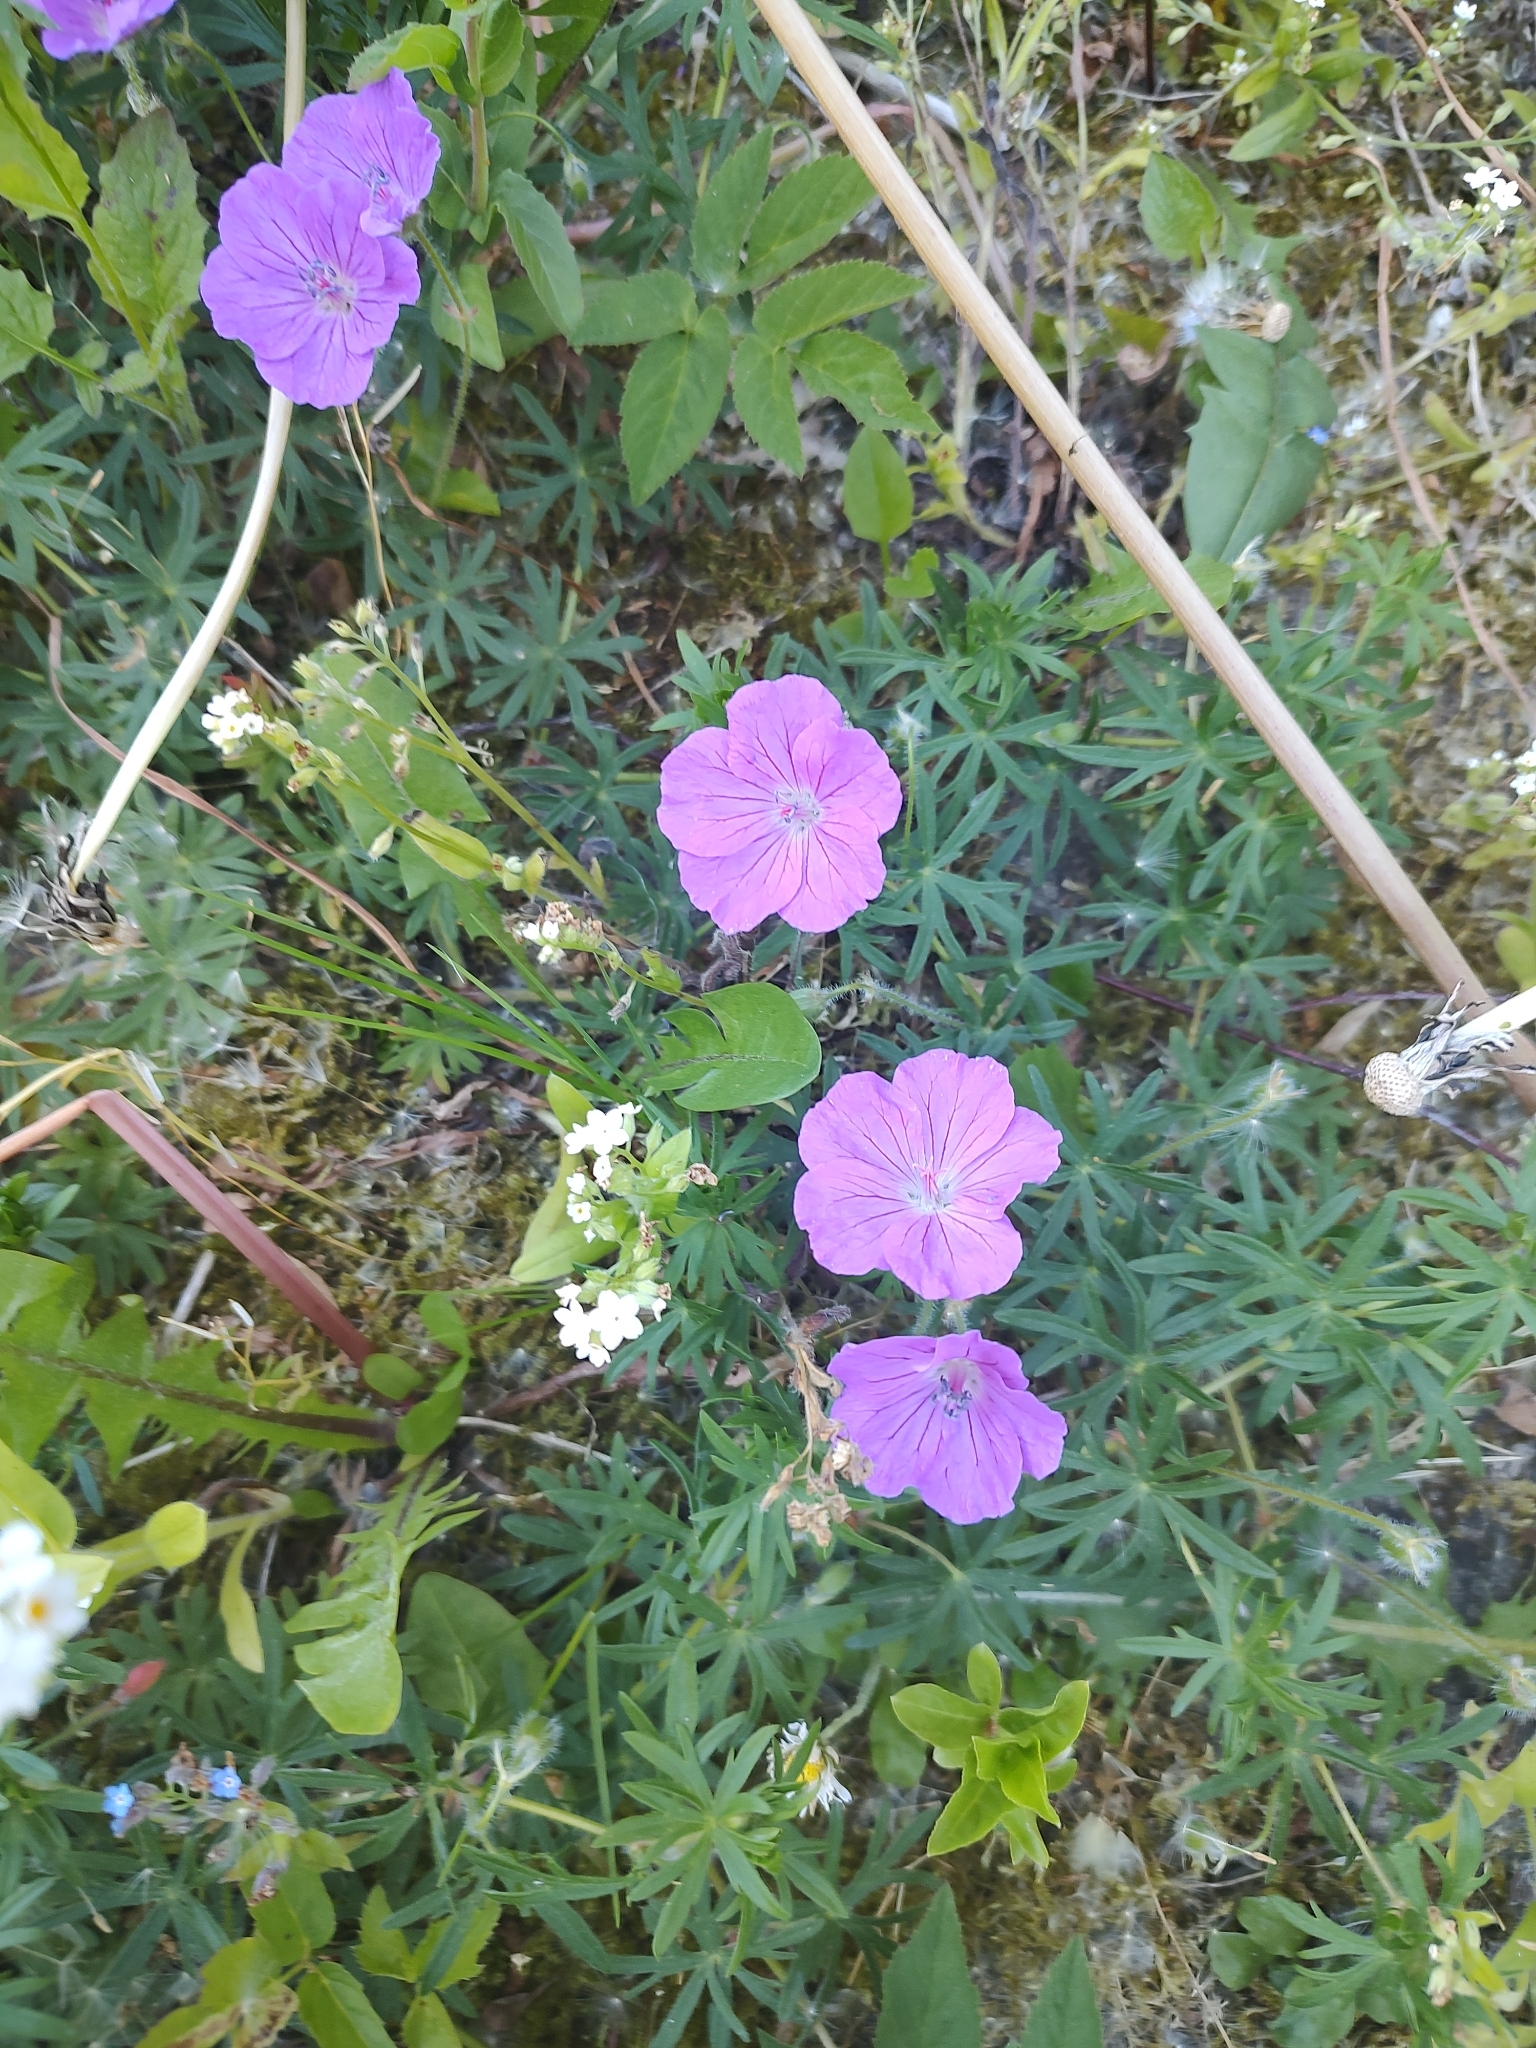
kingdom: Plantae
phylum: Tracheophyta
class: Magnoliopsida
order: Geraniales
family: Geraniaceae
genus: Geranium
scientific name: Geranium sanguineum
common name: Bloody crane's-bill
